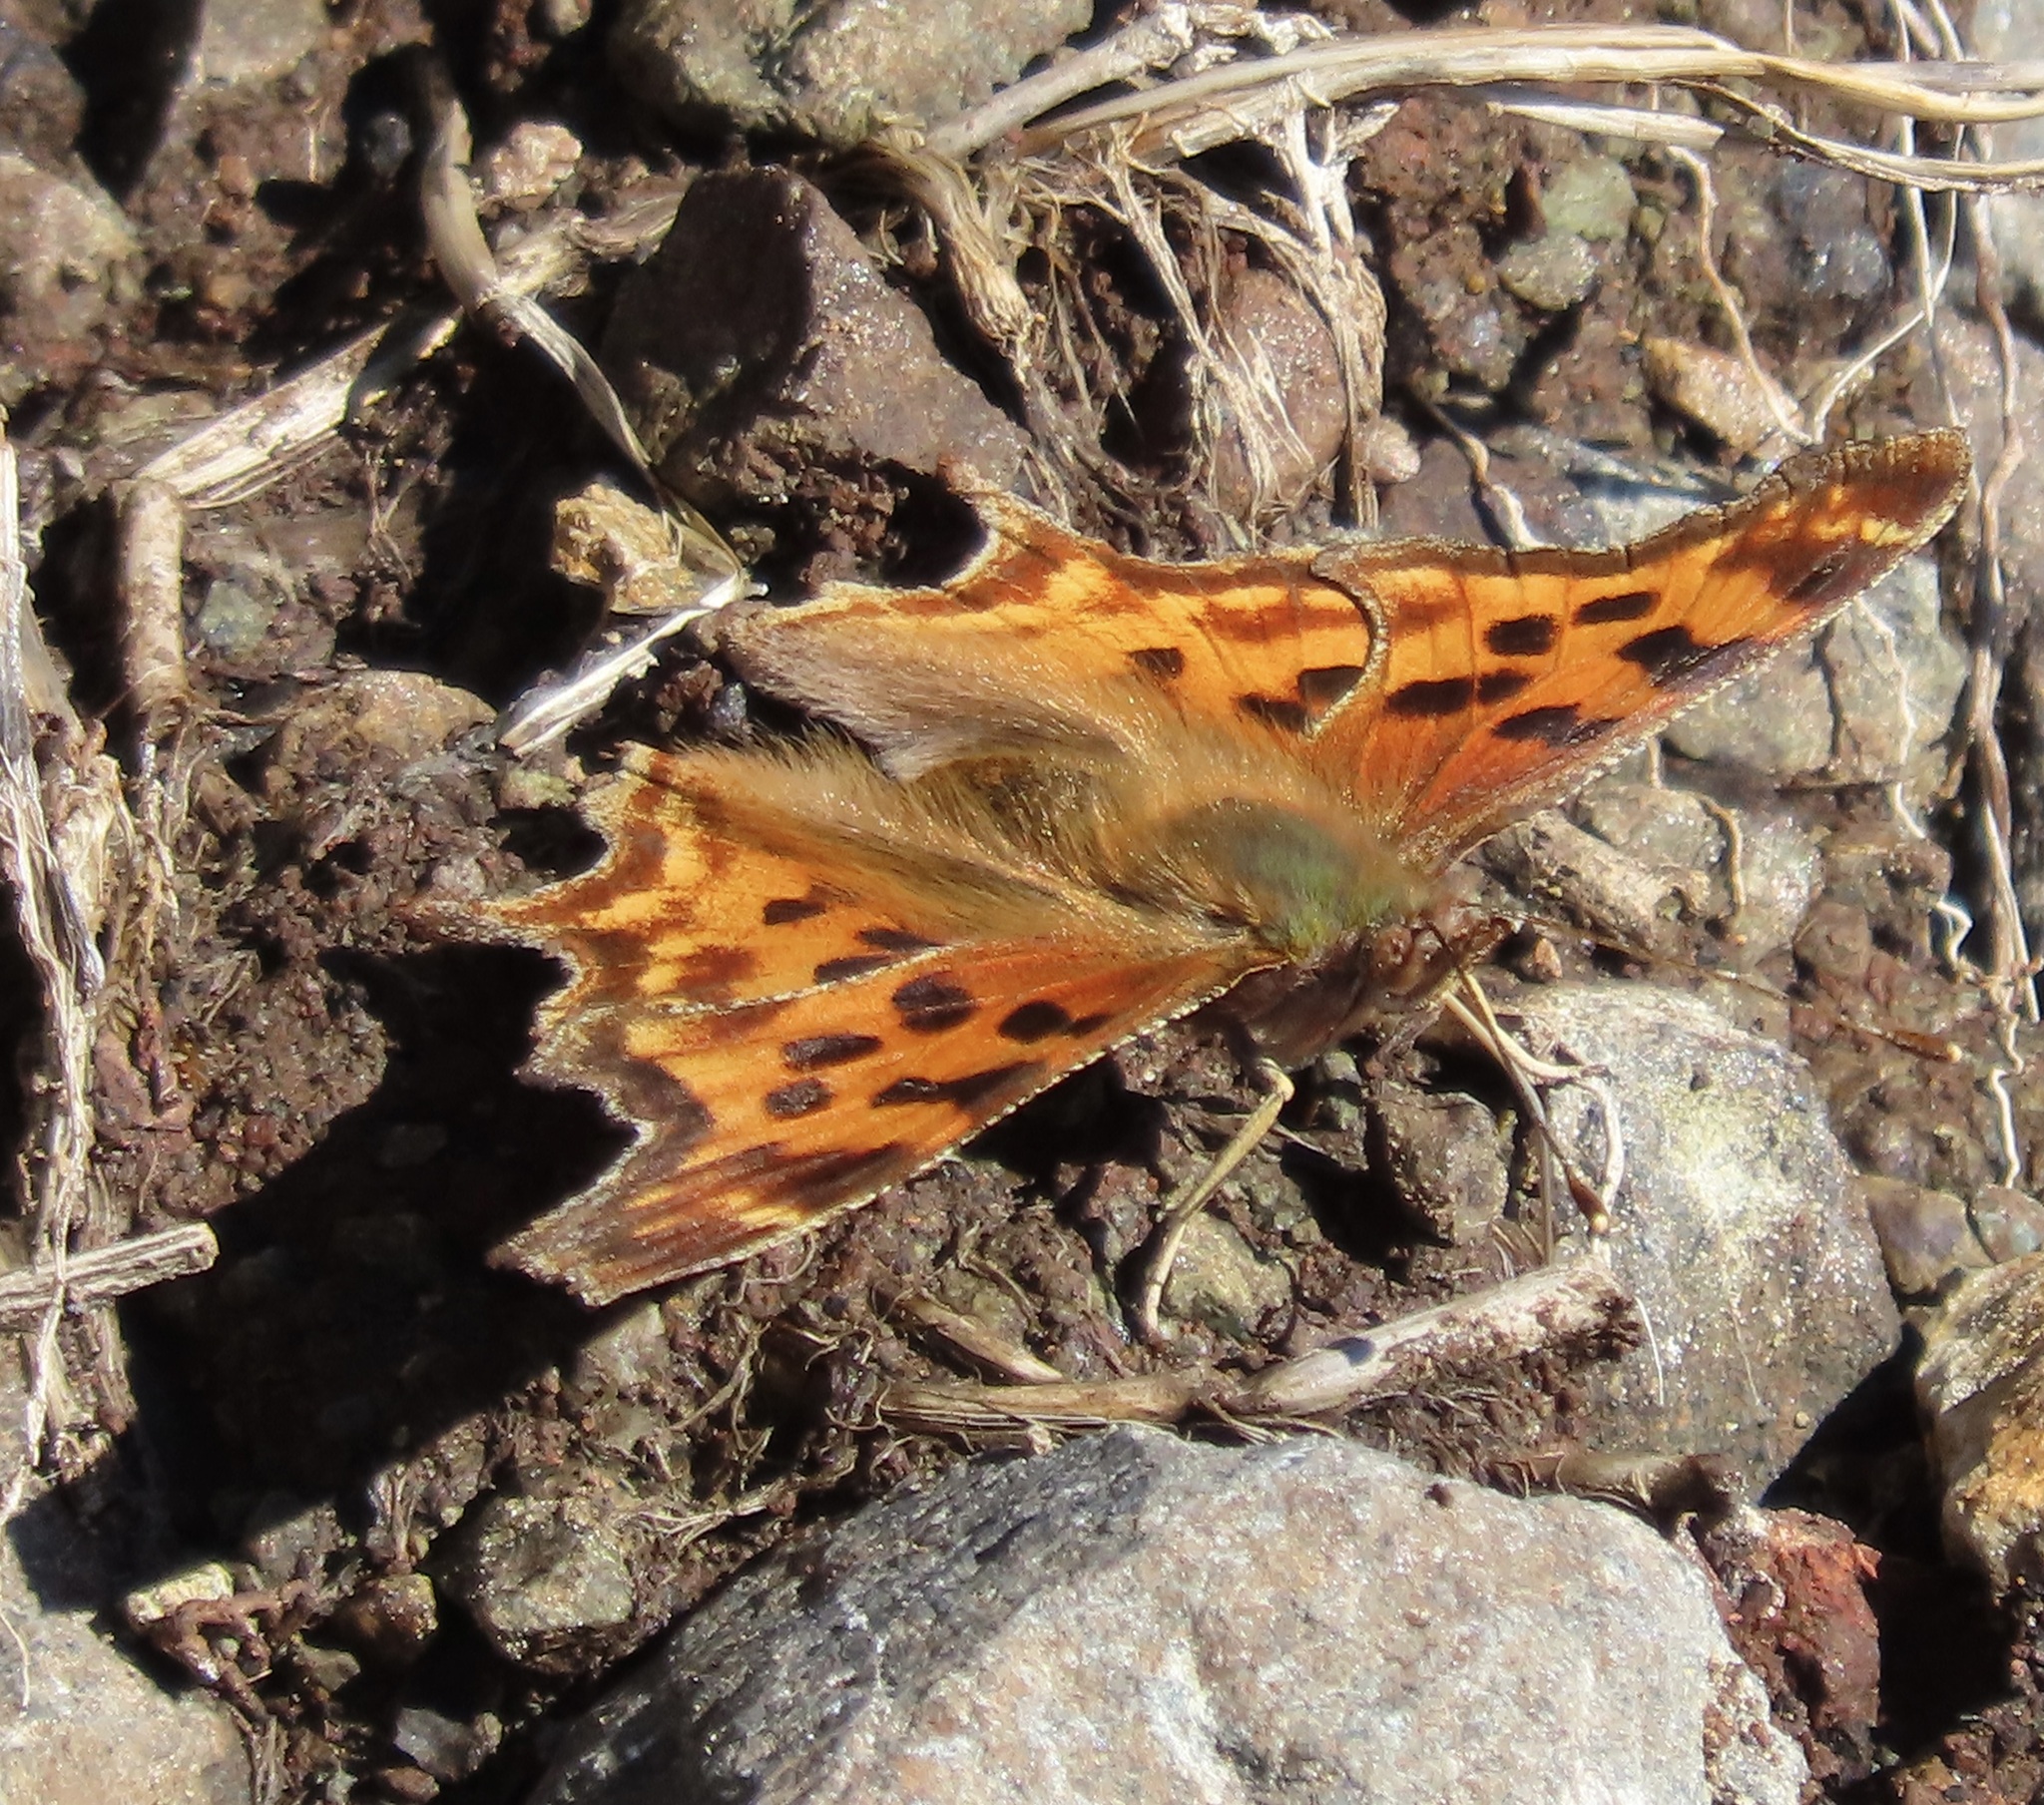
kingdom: Animalia
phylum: Arthropoda
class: Insecta
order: Lepidoptera
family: Nymphalidae
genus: Polygonia
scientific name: Polygonia satyrus
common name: Satyr angle wing
